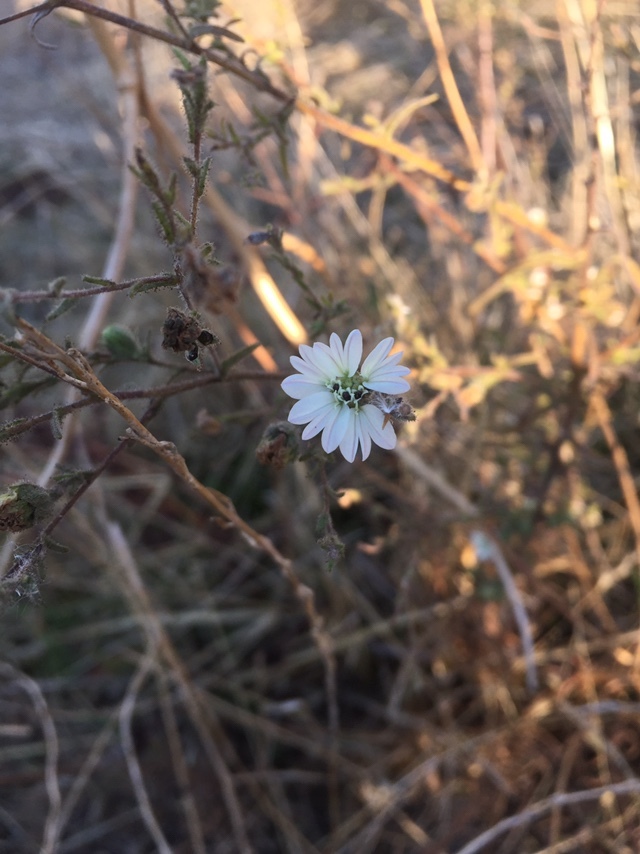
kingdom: Plantae
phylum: Tracheophyta
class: Magnoliopsida
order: Asterales
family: Asteraceae
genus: Hemizonia
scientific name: Hemizonia congesta
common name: Hayfield tarweed
